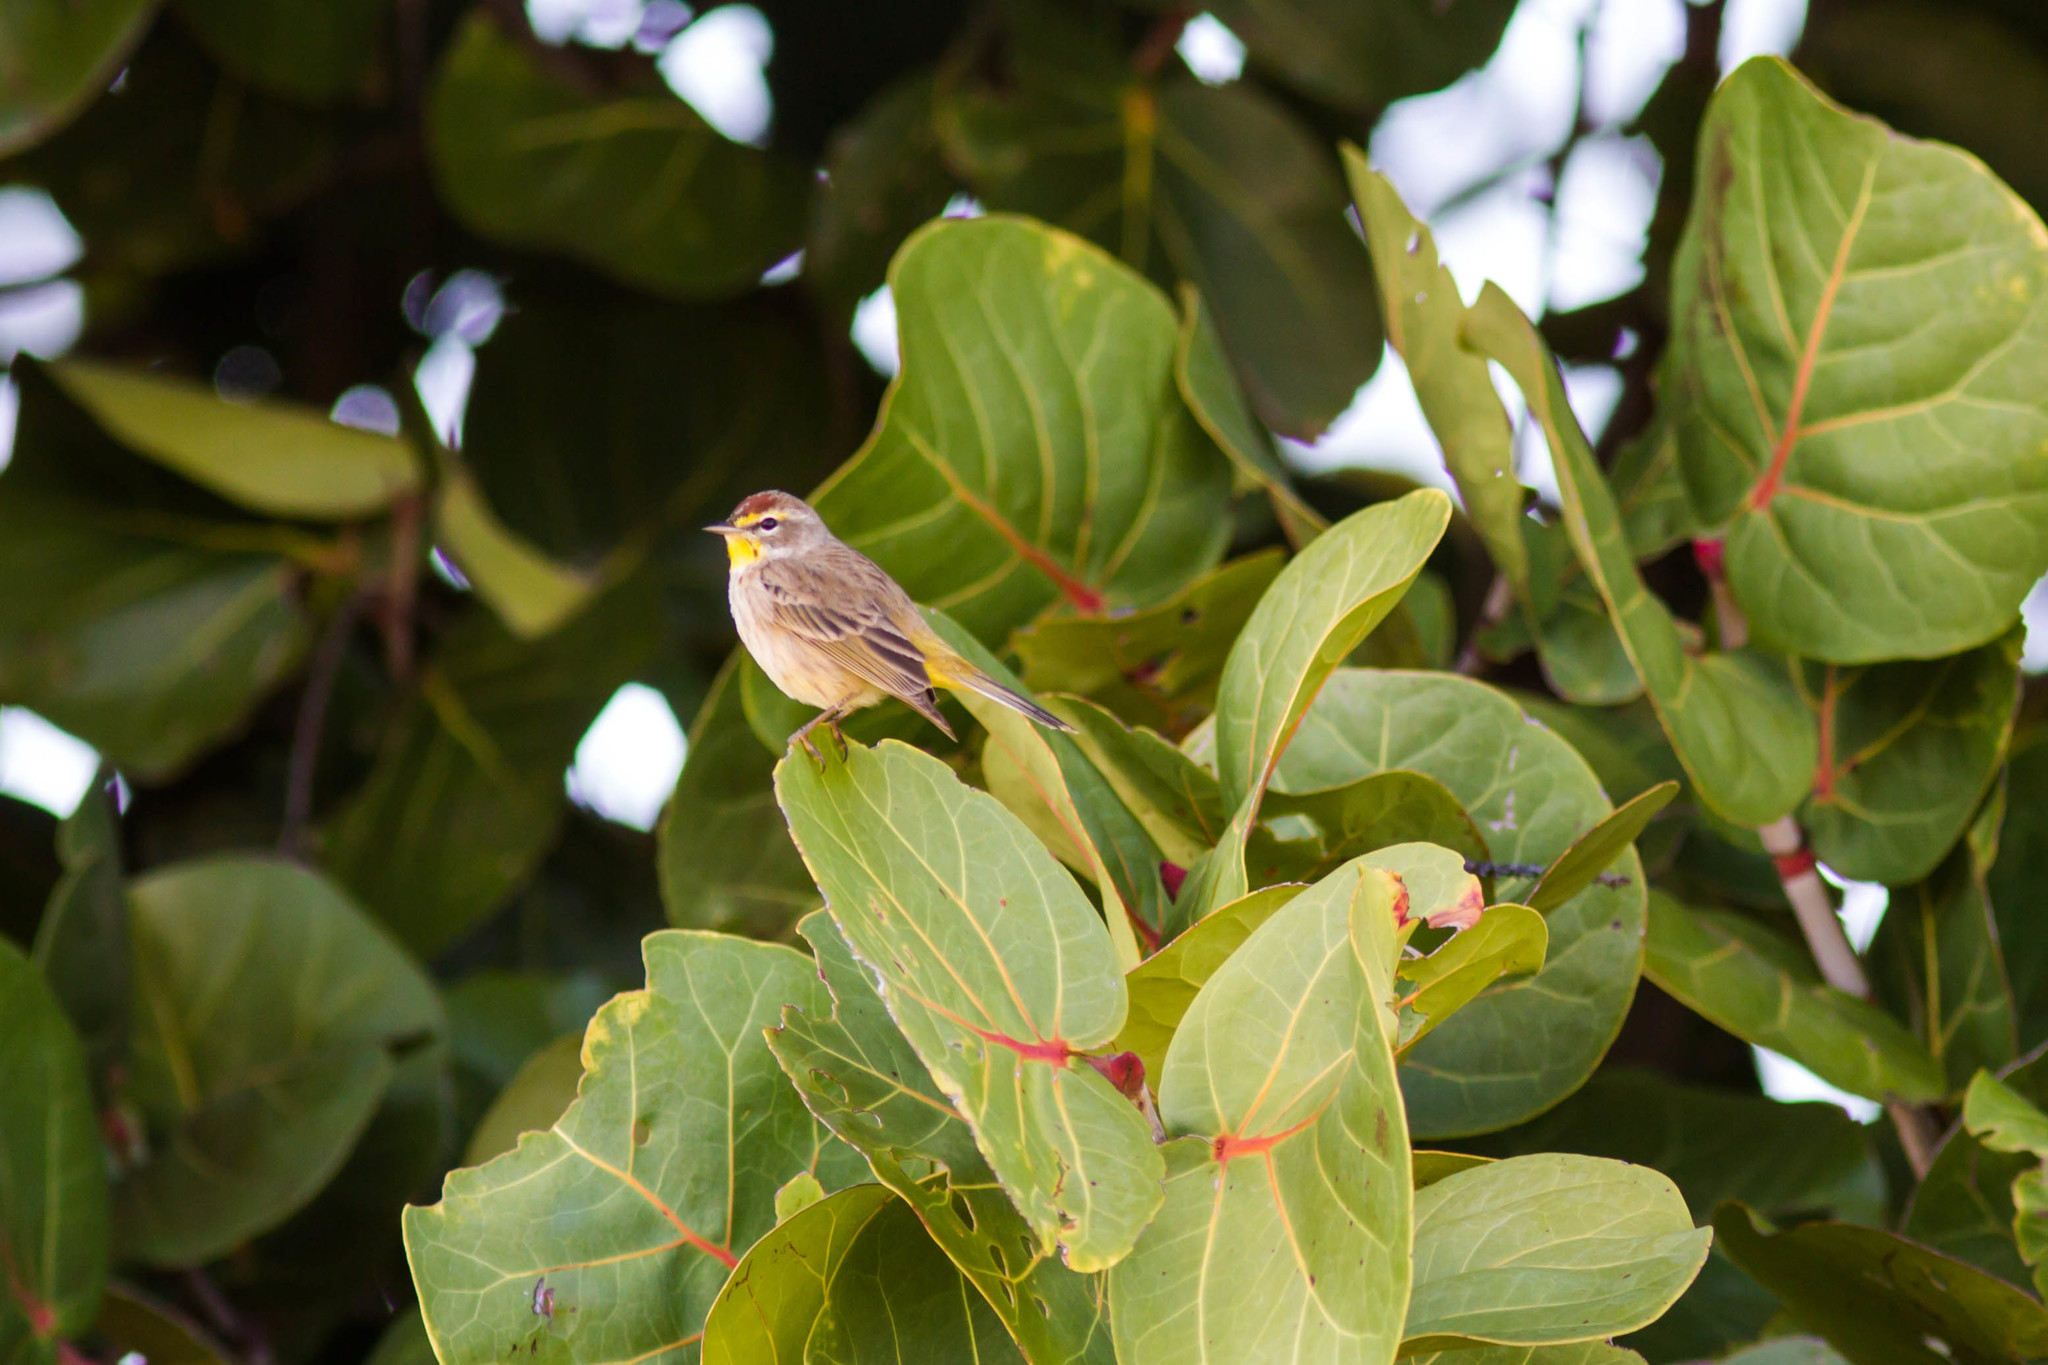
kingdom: Animalia
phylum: Chordata
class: Aves
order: Passeriformes
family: Parulidae
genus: Setophaga
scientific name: Setophaga palmarum
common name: Palm warbler
